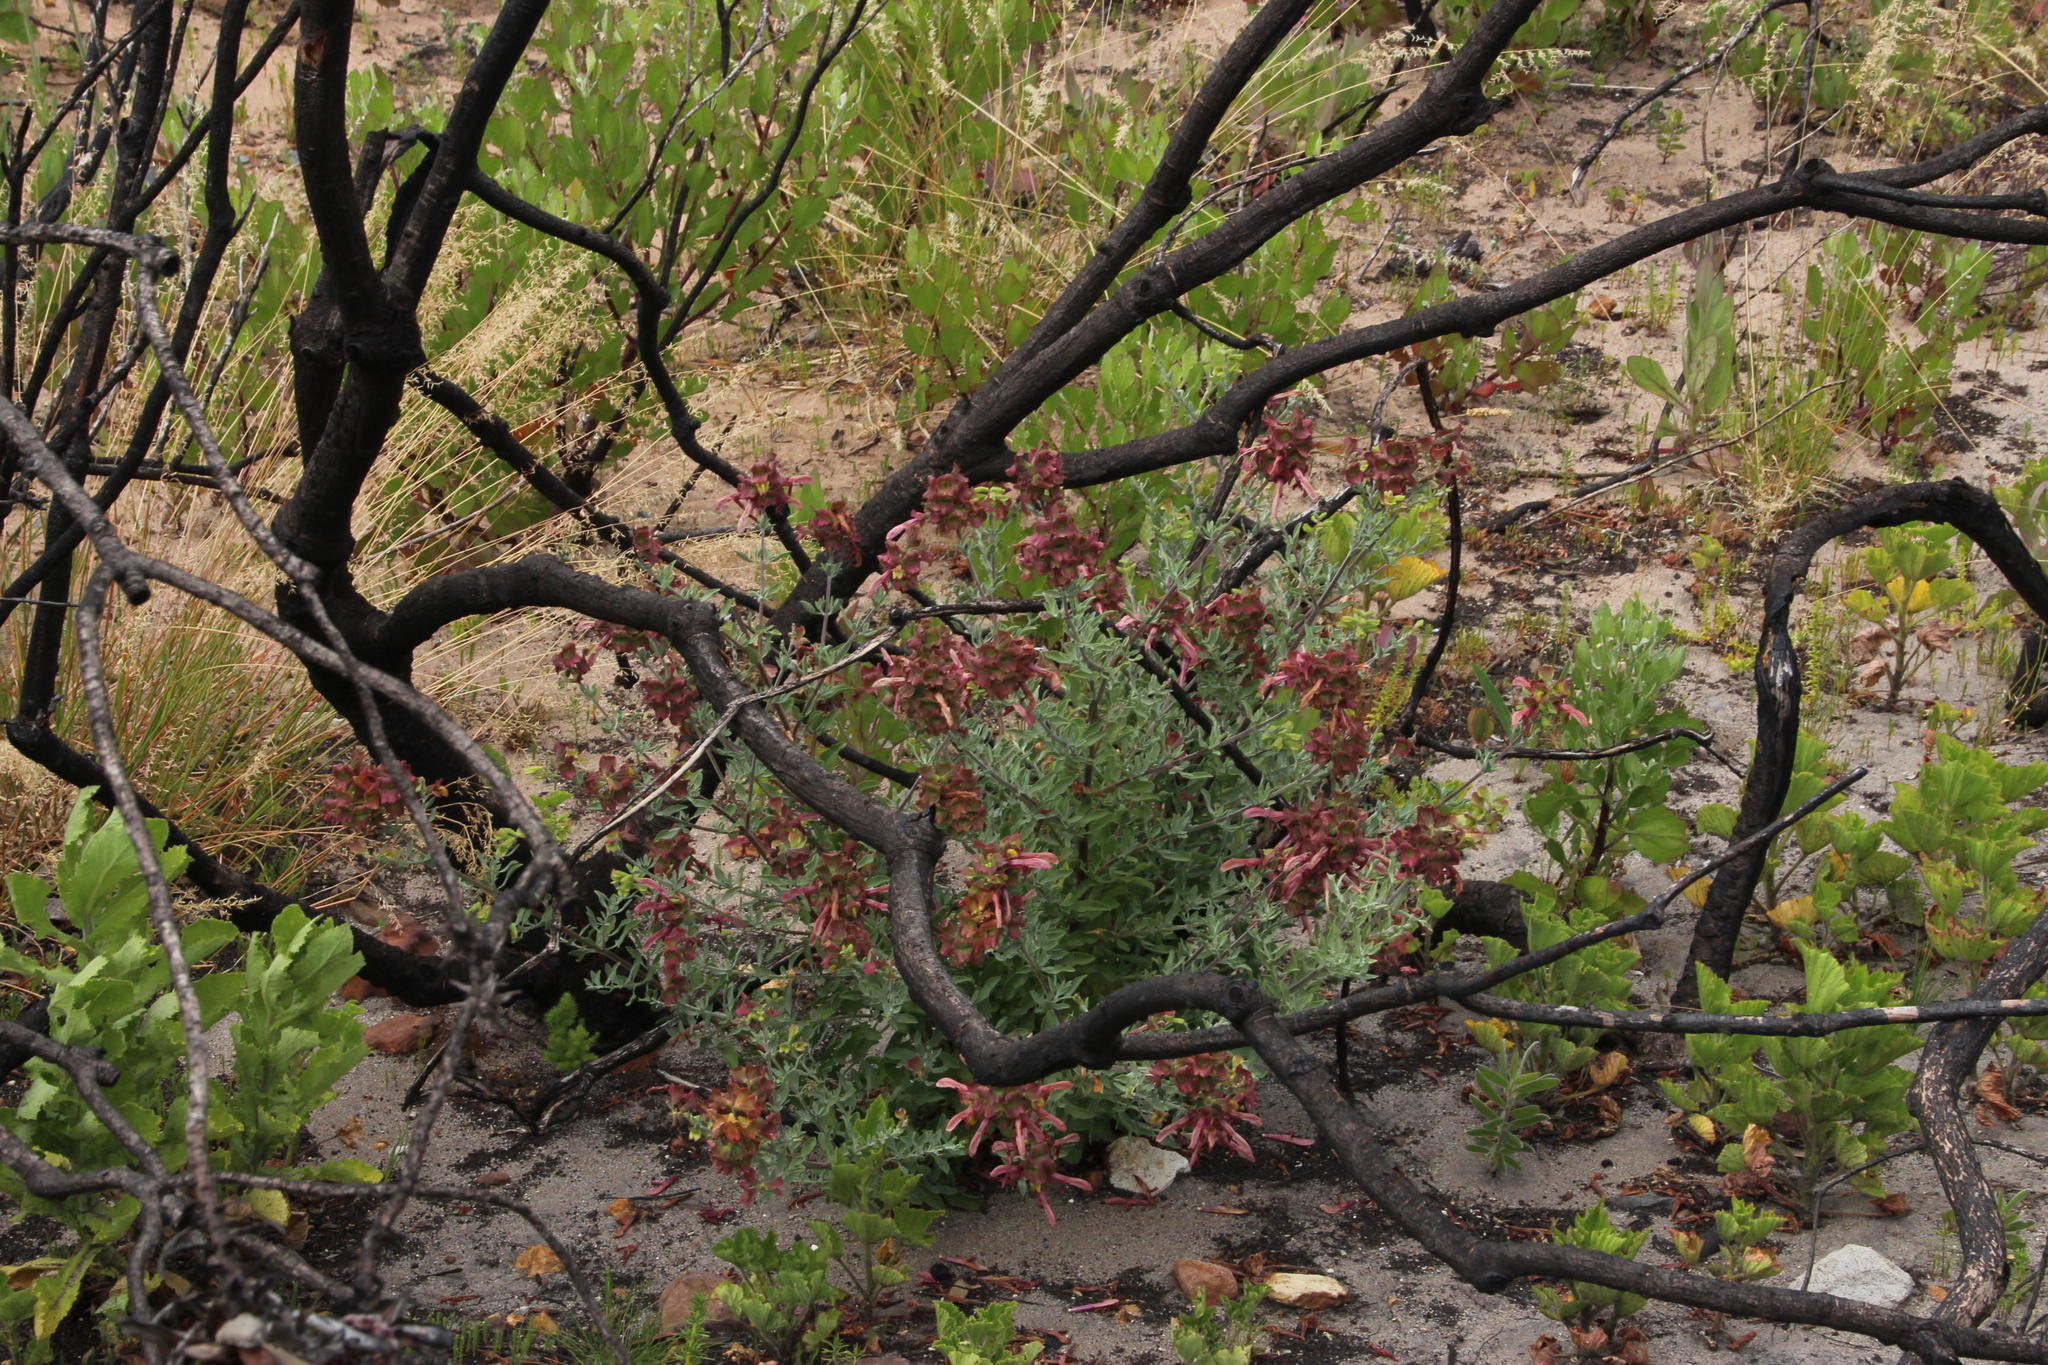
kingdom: Plantae
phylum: Tracheophyta
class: Magnoliopsida
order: Lamiales
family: Lamiaceae
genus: Salvia
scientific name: Salvia lanceolata
